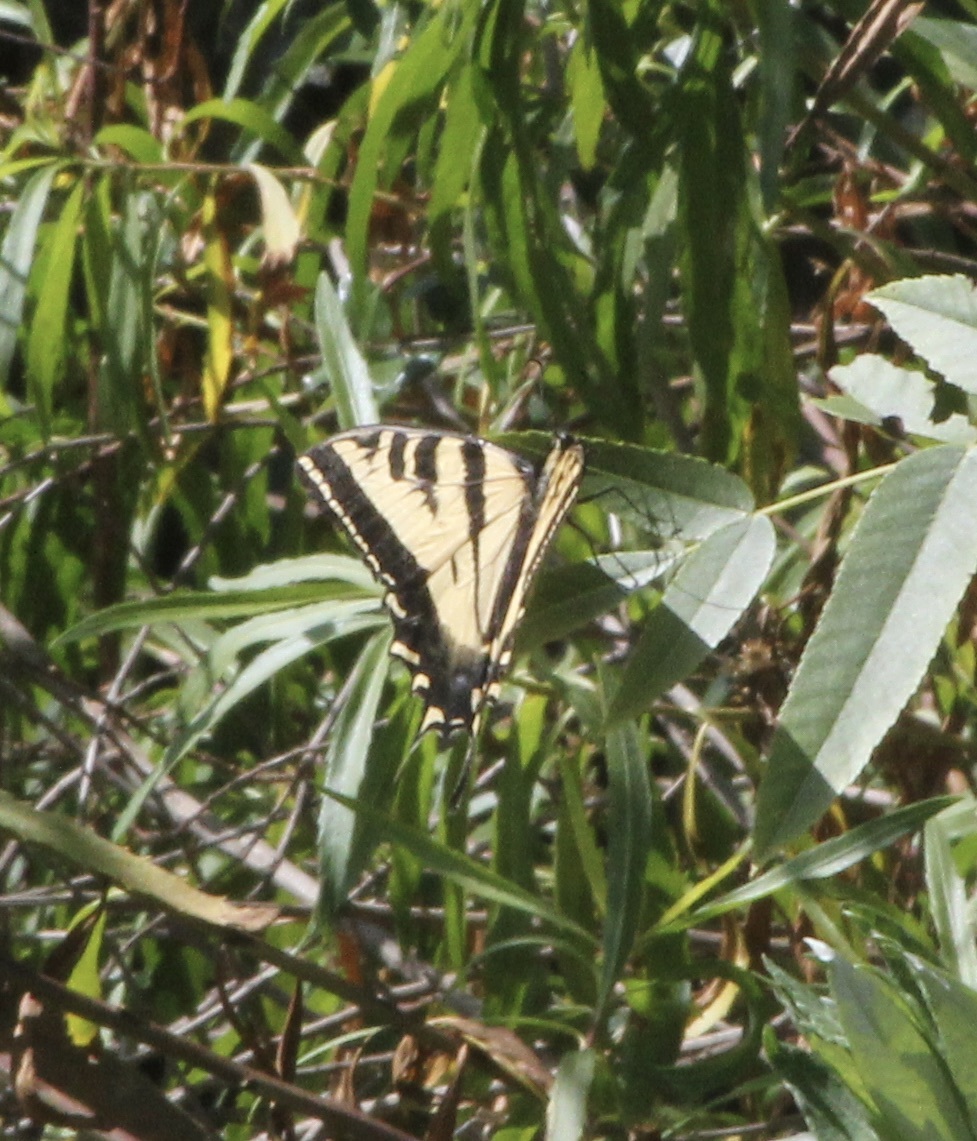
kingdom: Animalia
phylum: Arthropoda
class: Insecta
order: Lepidoptera
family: Papilionidae
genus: Papilio
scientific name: Papilio rutulus
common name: Western tiger swallowtail
